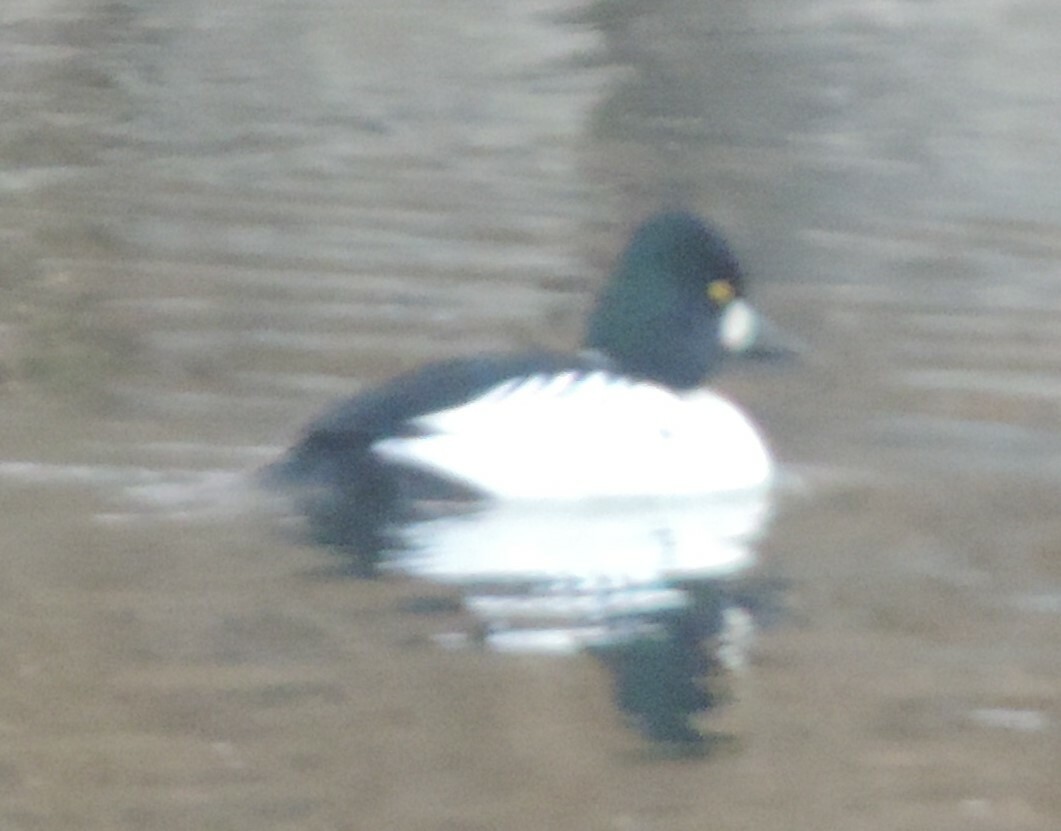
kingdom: Animalia
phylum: Chordata
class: Aves
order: Anseriformes
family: Anatidae
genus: Bucephala
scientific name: Bucephala clangula
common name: Common goldeneye
